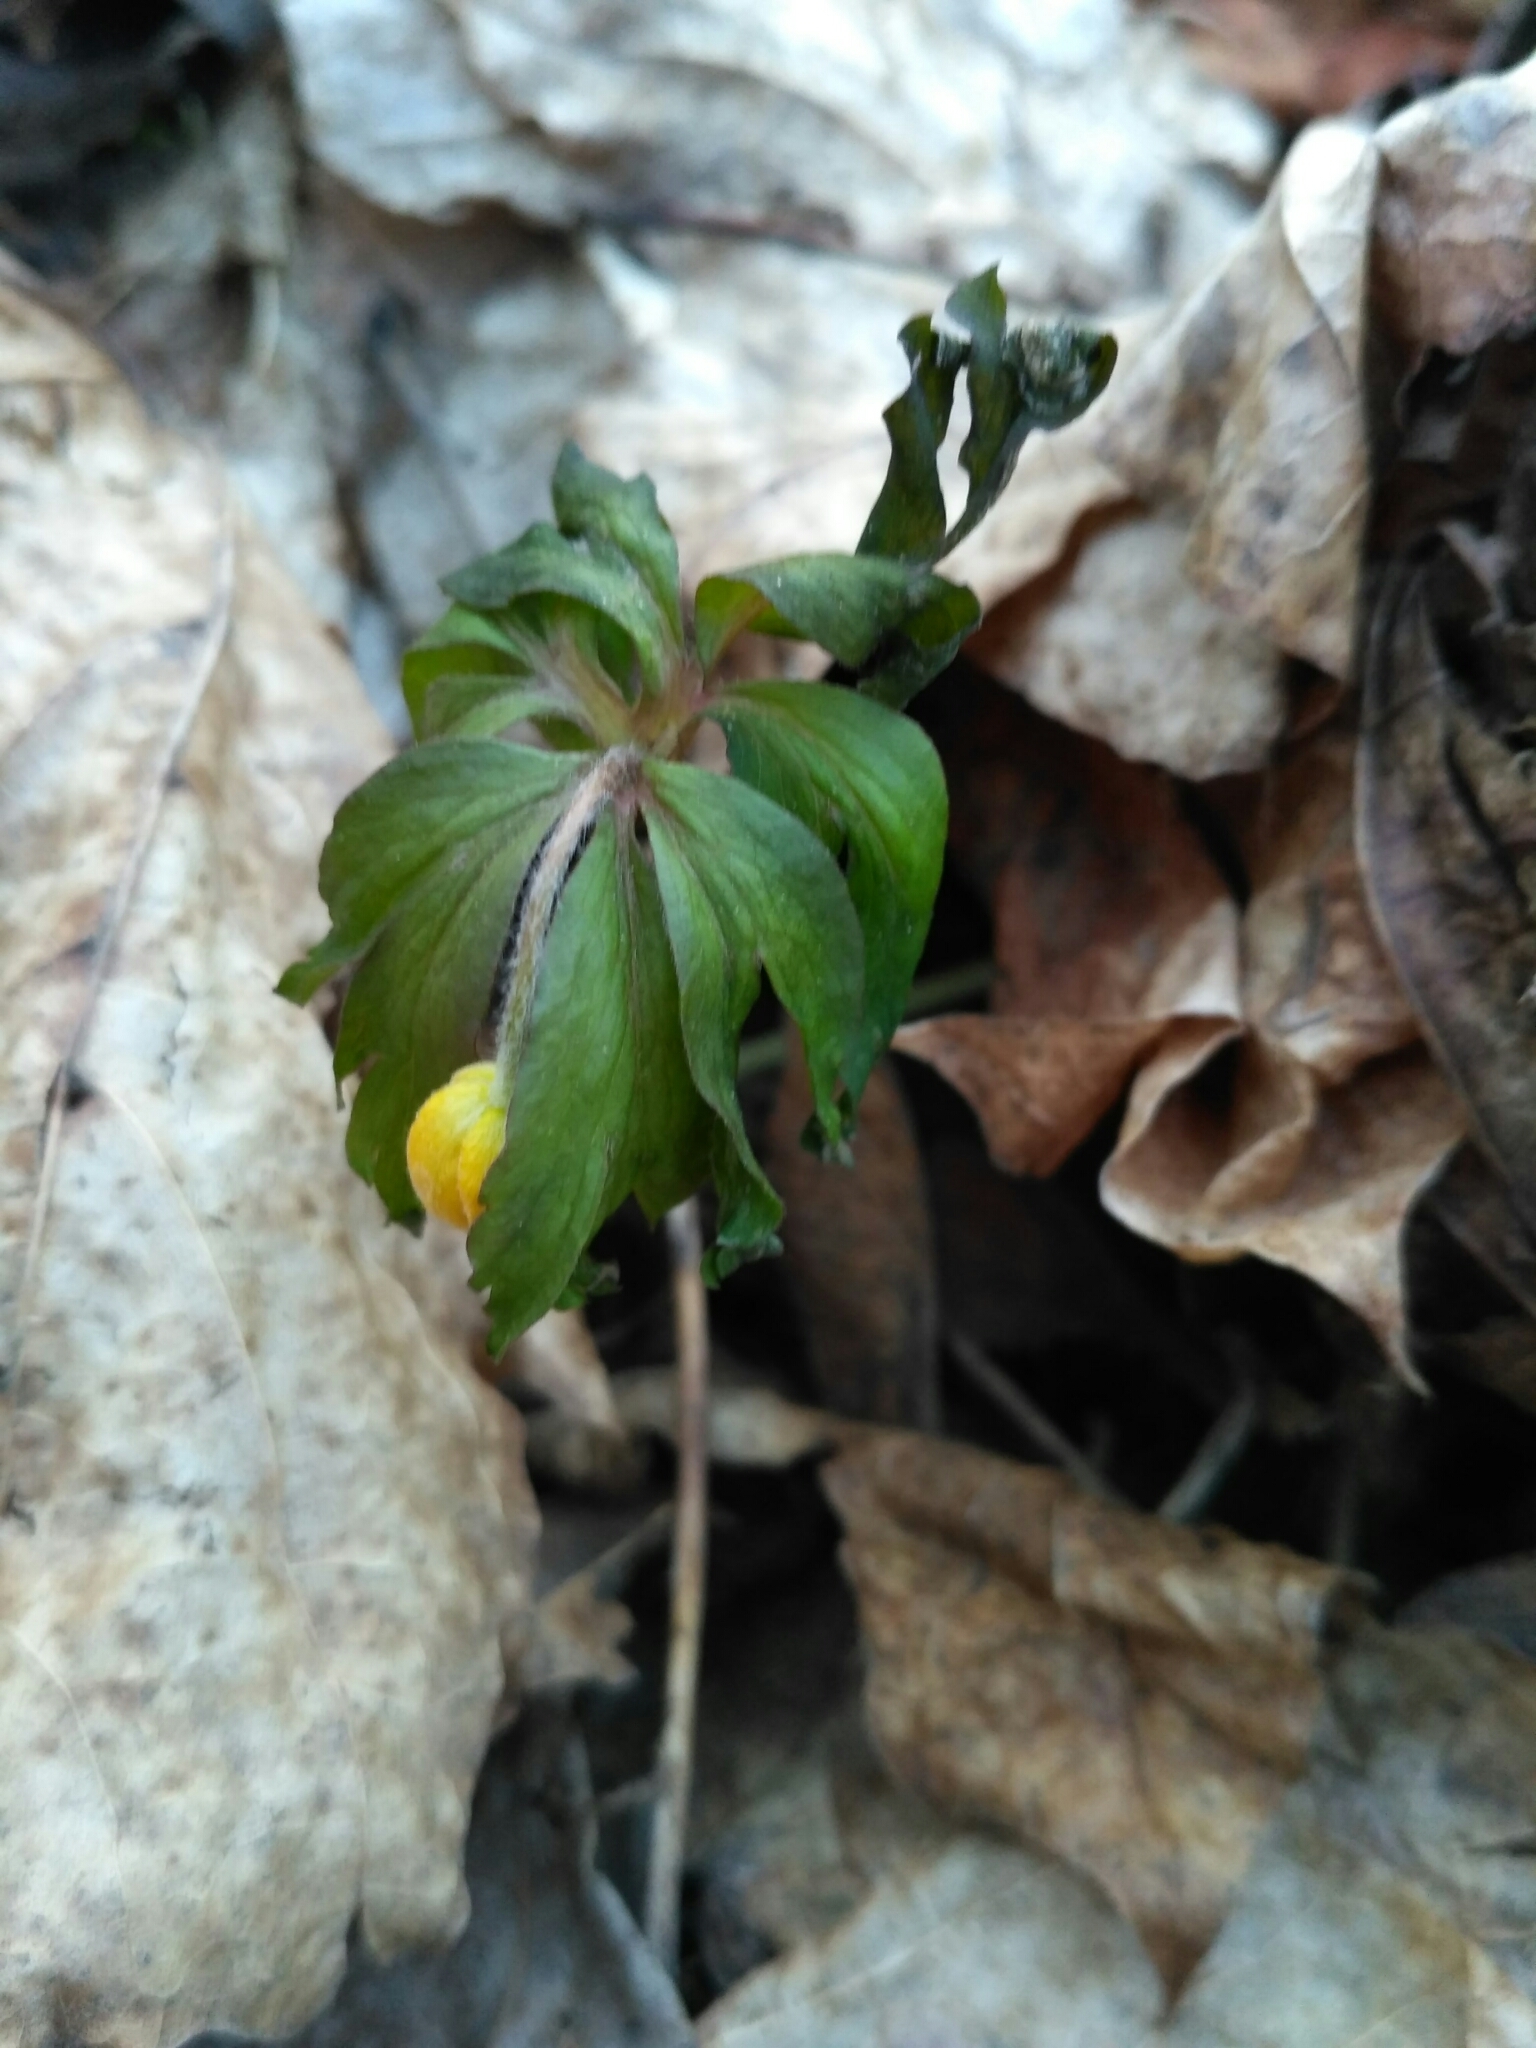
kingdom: Plantae
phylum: Tracheophyta
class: Magnoliopsida
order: Ranunculales
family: Ranunculaceae
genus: Anemone
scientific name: Anemone ranunculoides
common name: Yellow anemone
